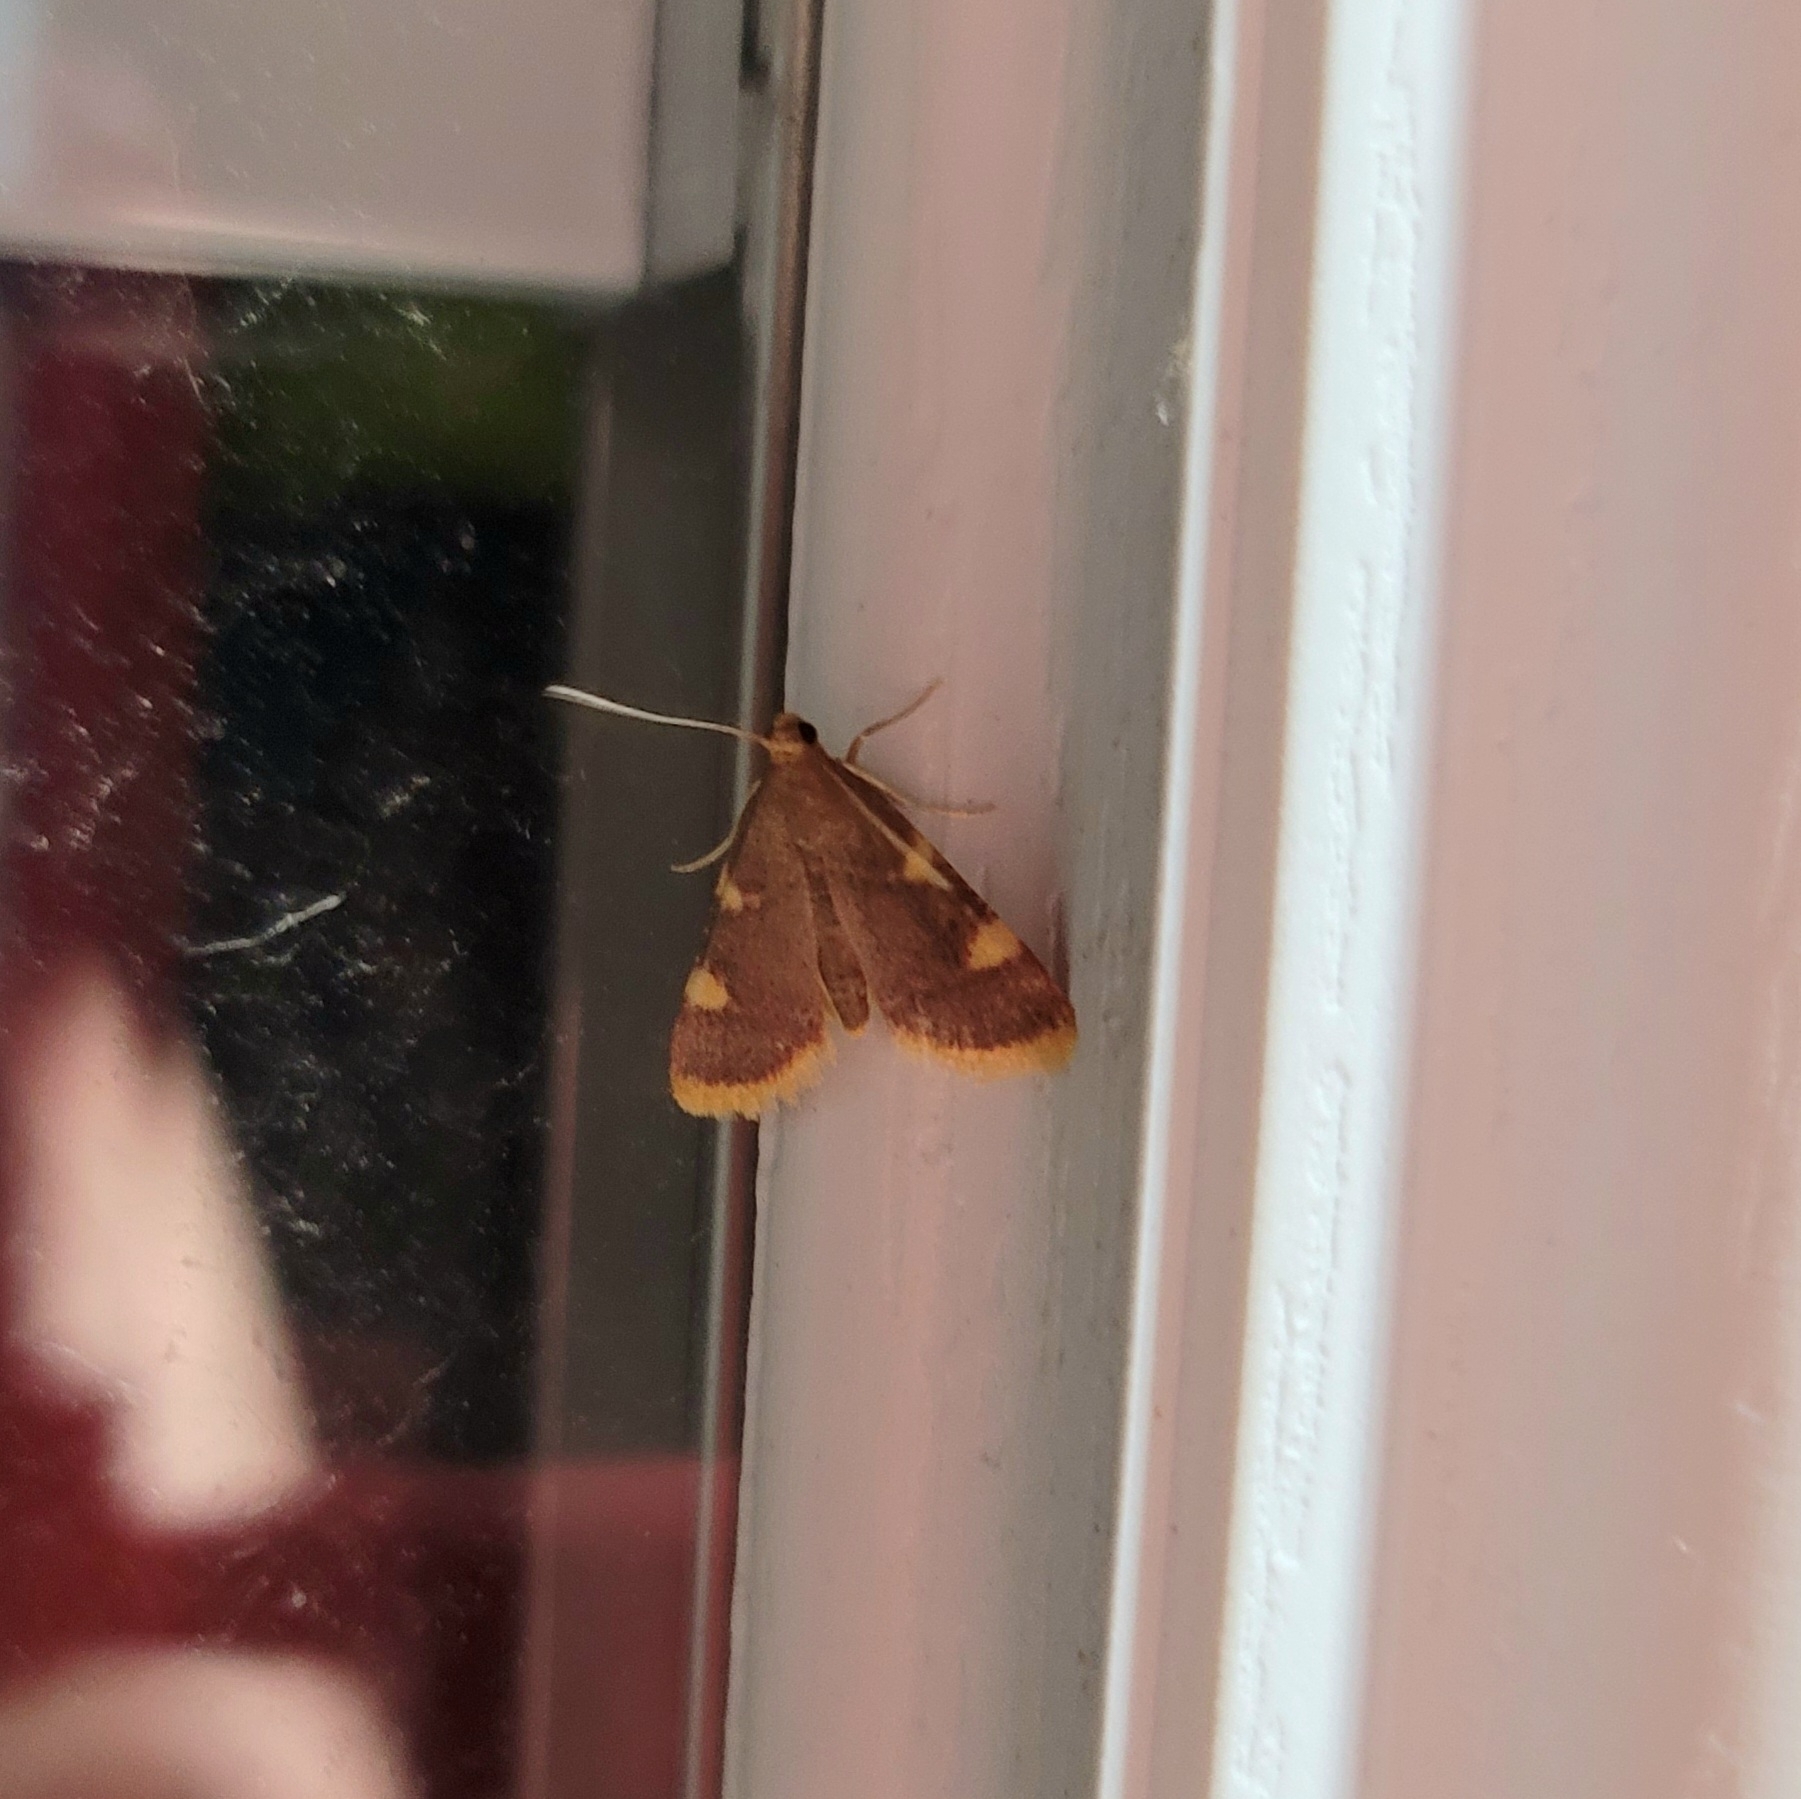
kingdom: Animalia
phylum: Arthropoda
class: Insecta
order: Lepidoptera
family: Pyralidae
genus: Hypsopygia
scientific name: Hypsopygia costalis
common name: Gold triangle
